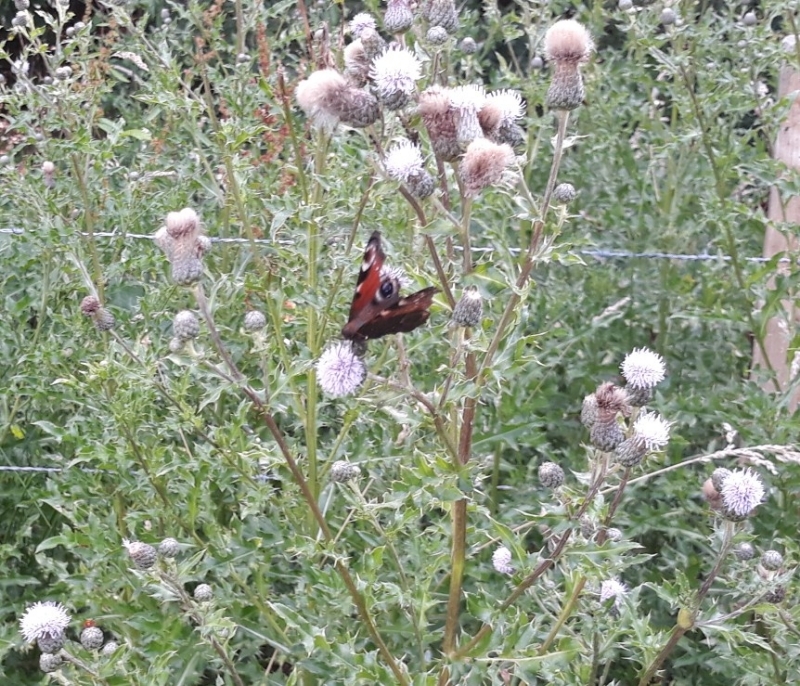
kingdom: Animalia
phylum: Arthropoda
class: Insecta
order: Lepidoptera
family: Nymphalidae
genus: Aglais
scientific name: Aglais io
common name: Peacock
